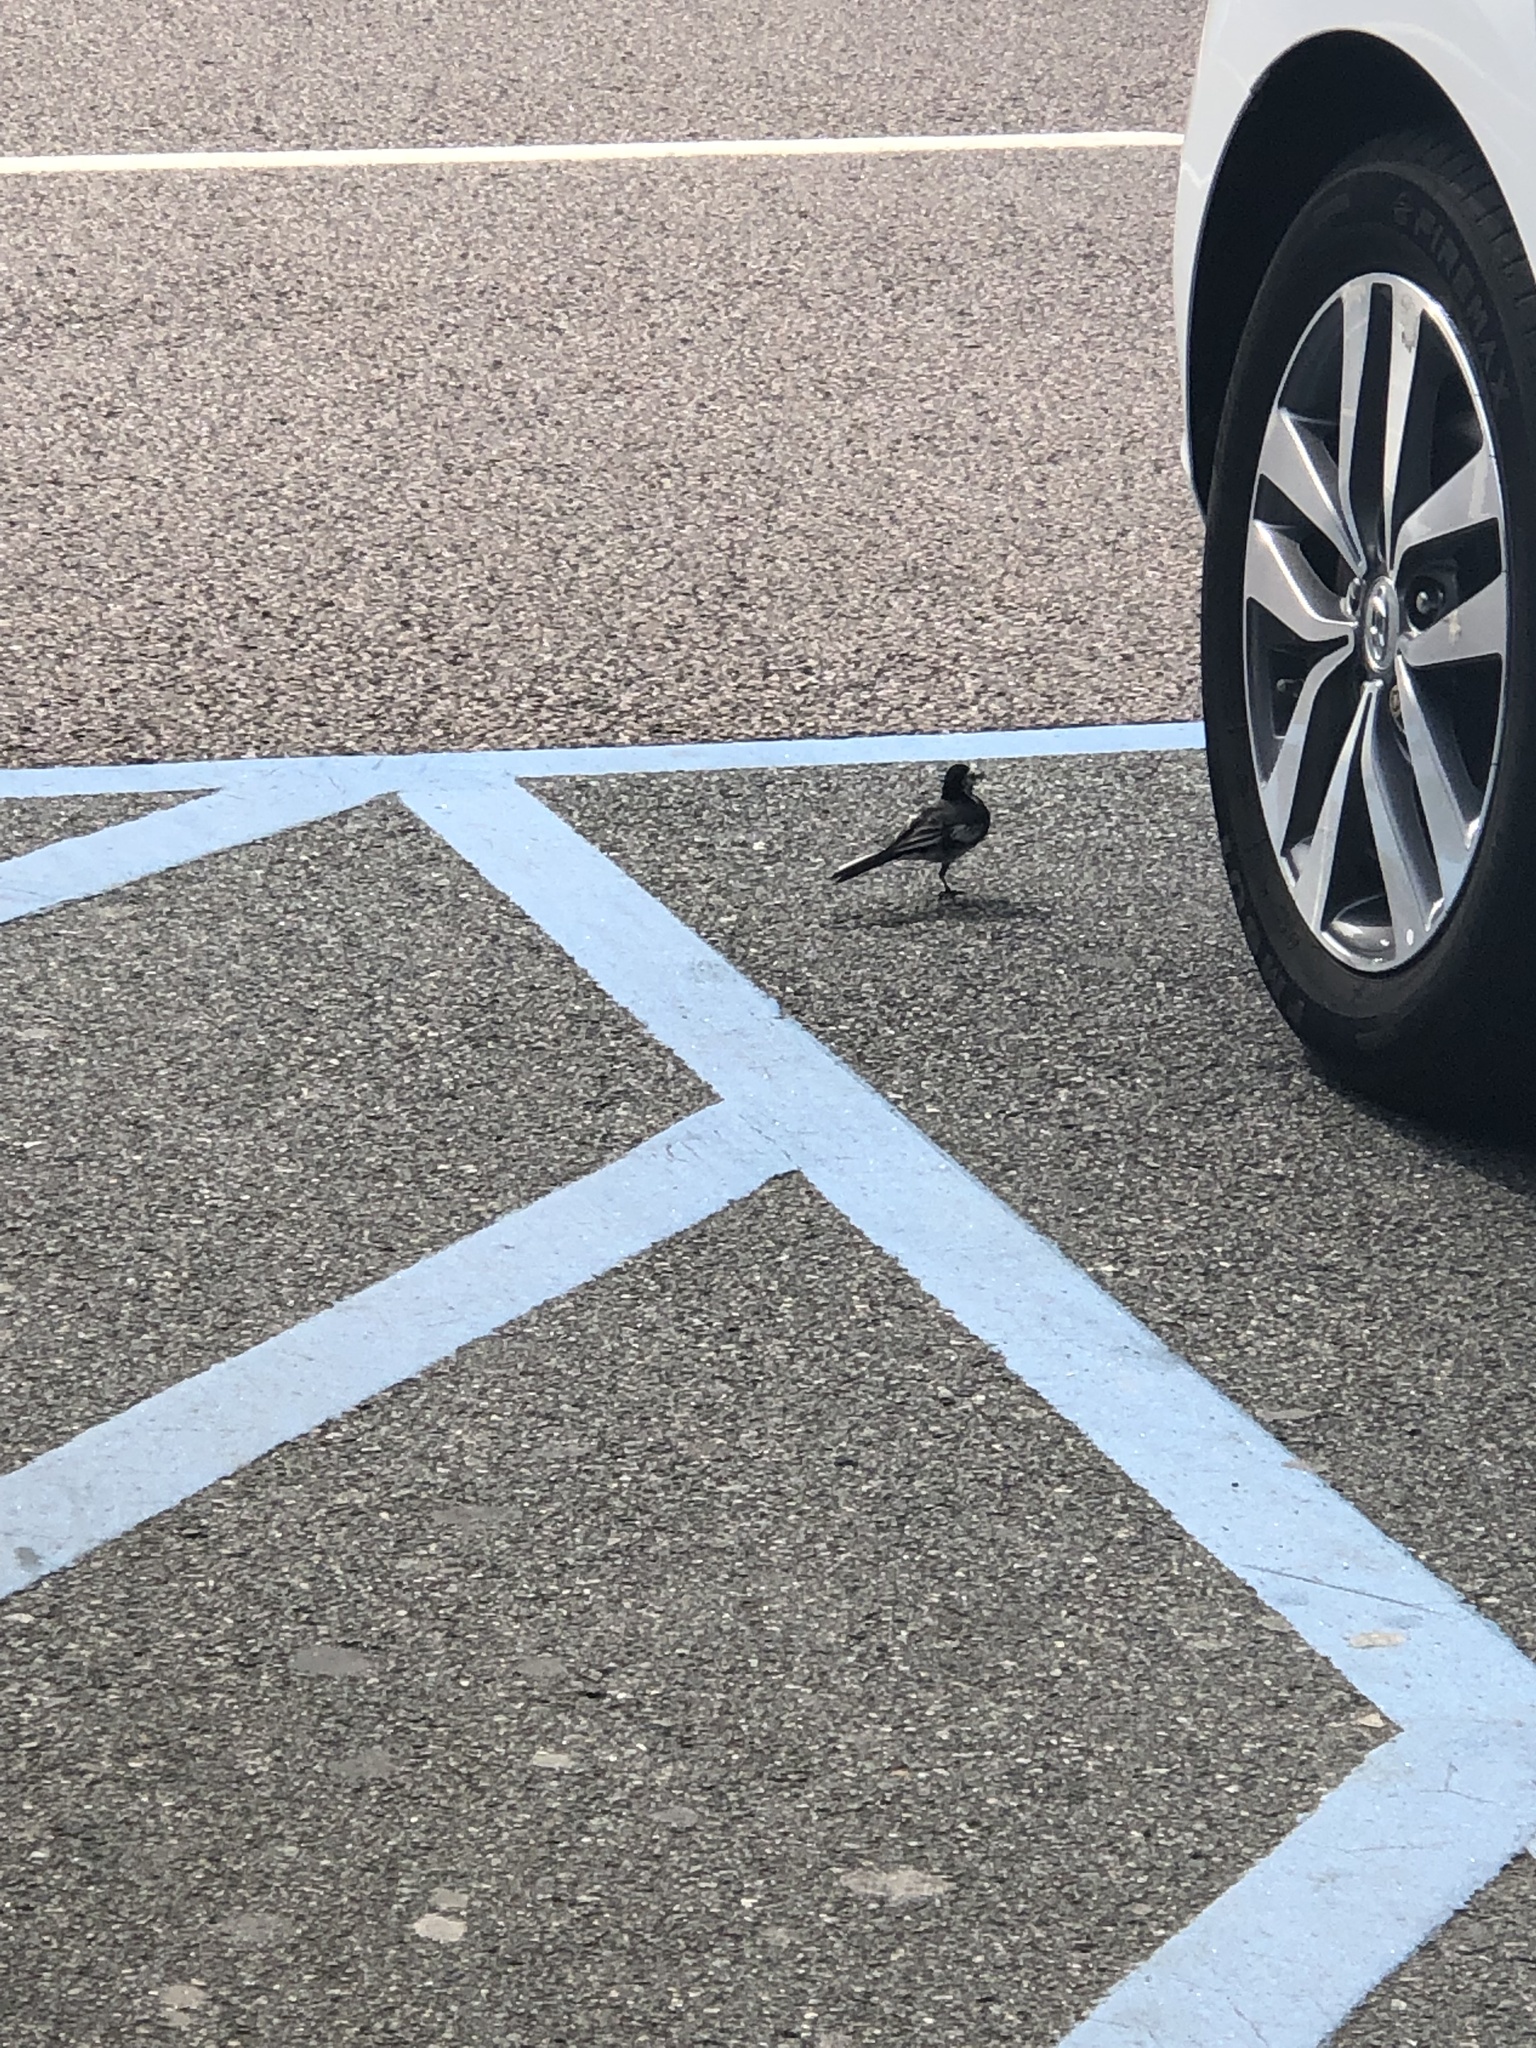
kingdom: Animalia
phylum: Chordata
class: Aves
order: Passeriformes
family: Motacillidae
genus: Motacilla
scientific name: Motacilla alba
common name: White wagtail
